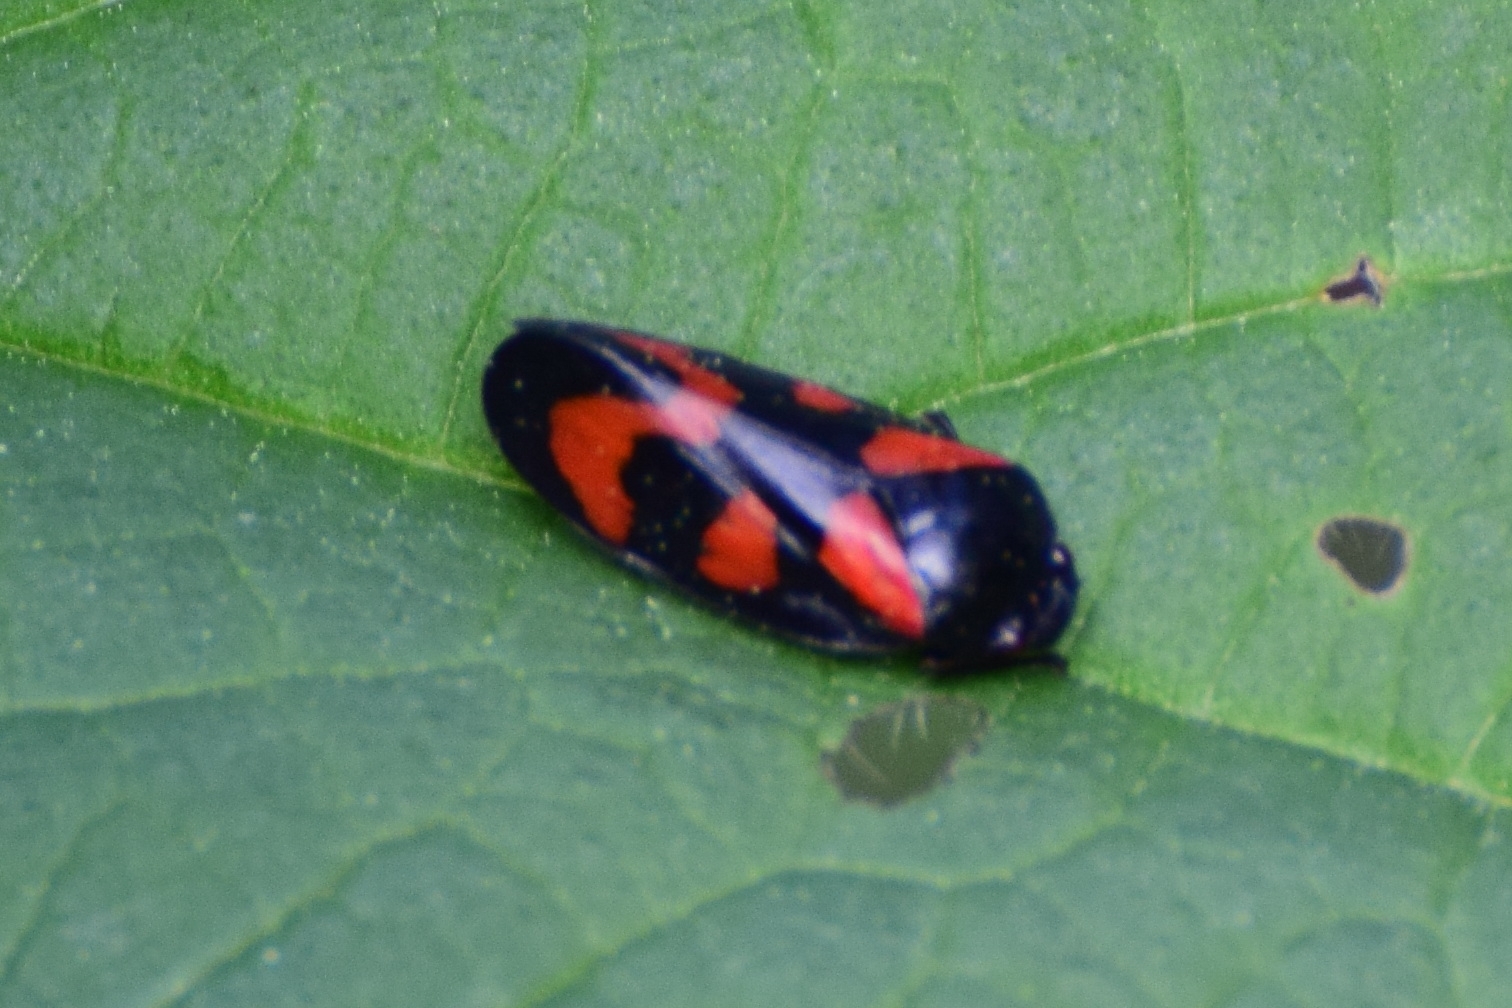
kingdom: Animalia
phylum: Arthropoda
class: Insecta
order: Hemiptera
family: Cercopidae
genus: Cercopis
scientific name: Cercopis vulnerata
